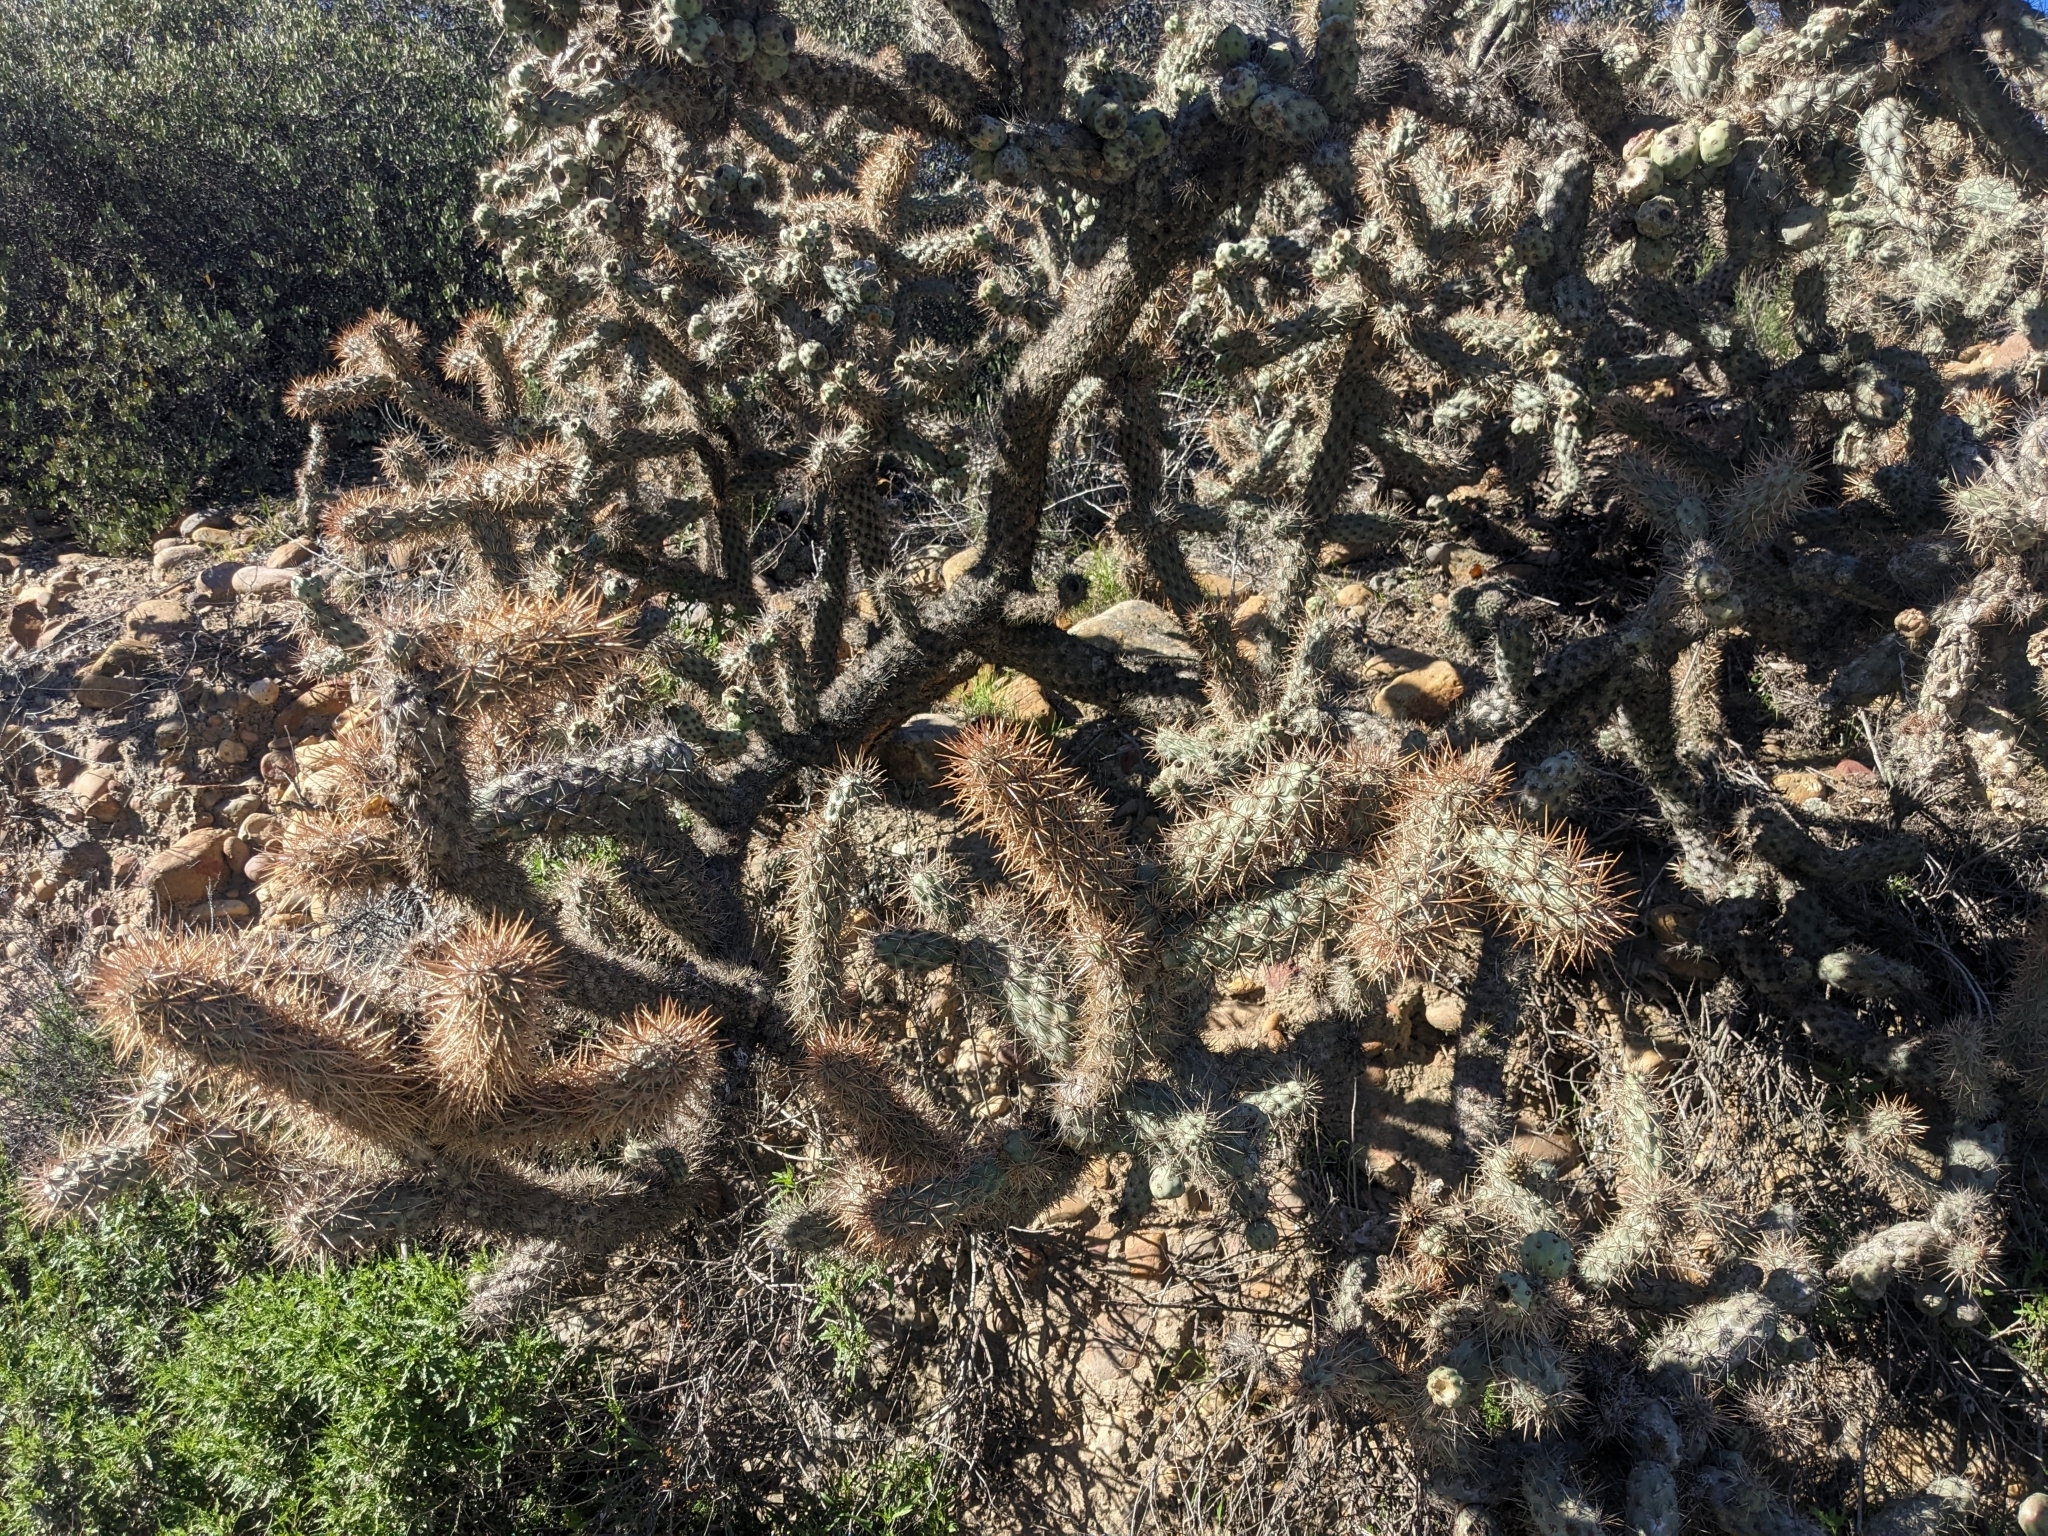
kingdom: Plantae
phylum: Tracheophyta
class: Magnoliopsida
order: Caryophyllales
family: Cactaceae
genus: Cylindropuntia
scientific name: Cylindropuntia prolifera
